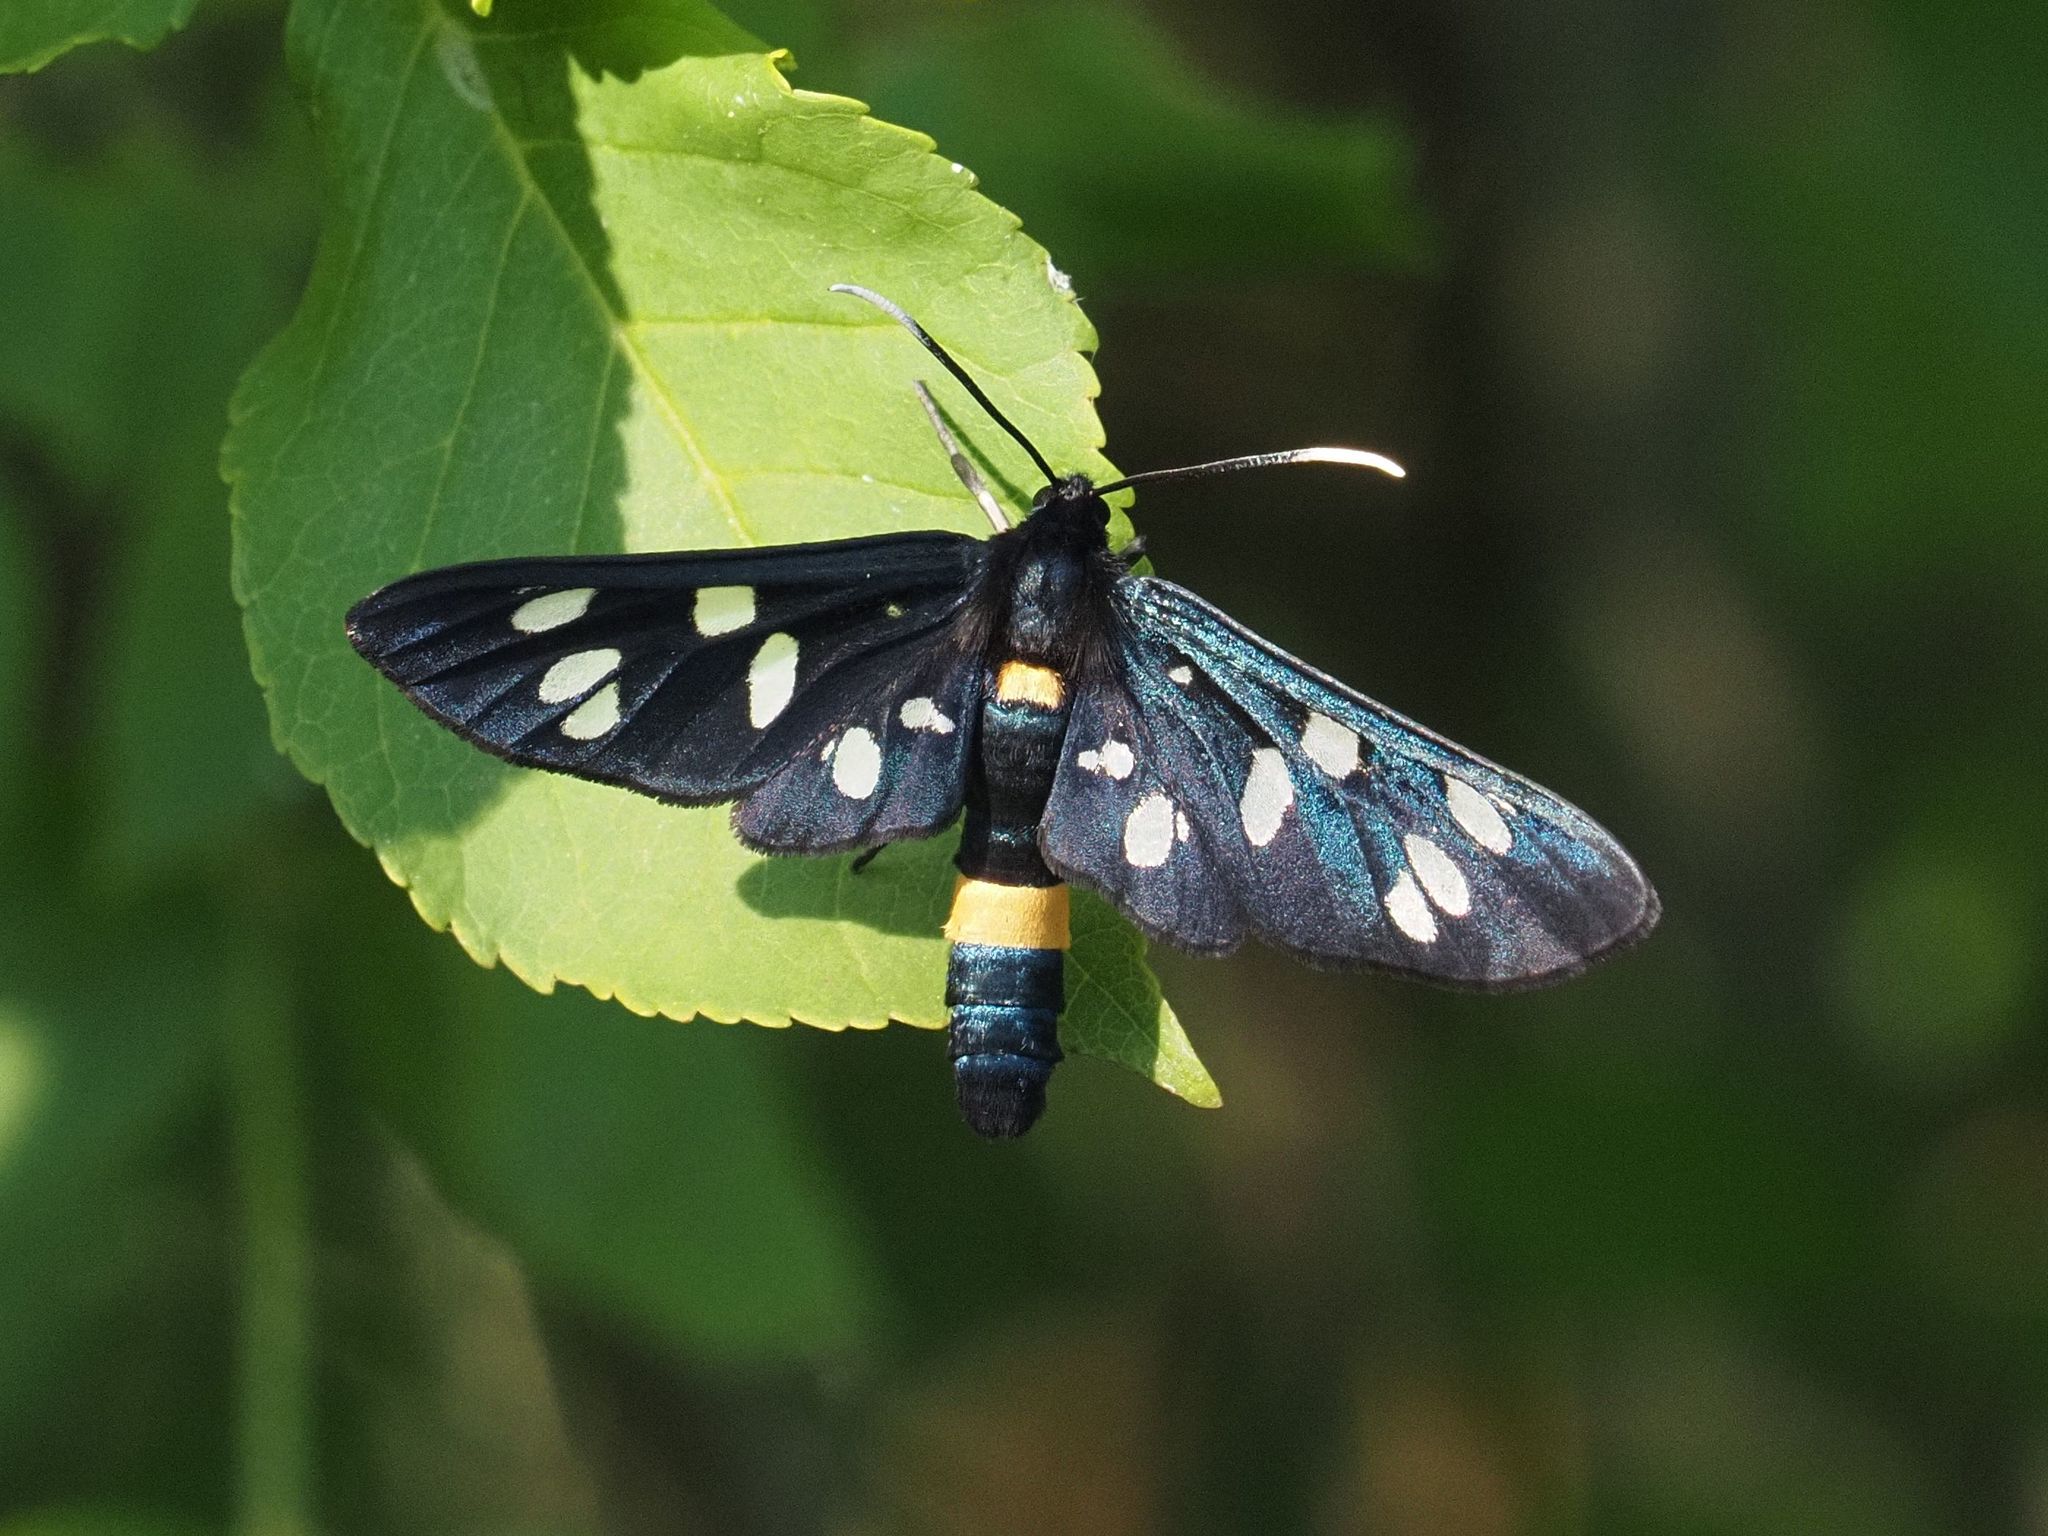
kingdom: Animalia
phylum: Arthropoda
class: Insecta
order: Lepidoptera
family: Erebidae
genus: Amata
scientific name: Amata phegea
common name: Nine-spotted
